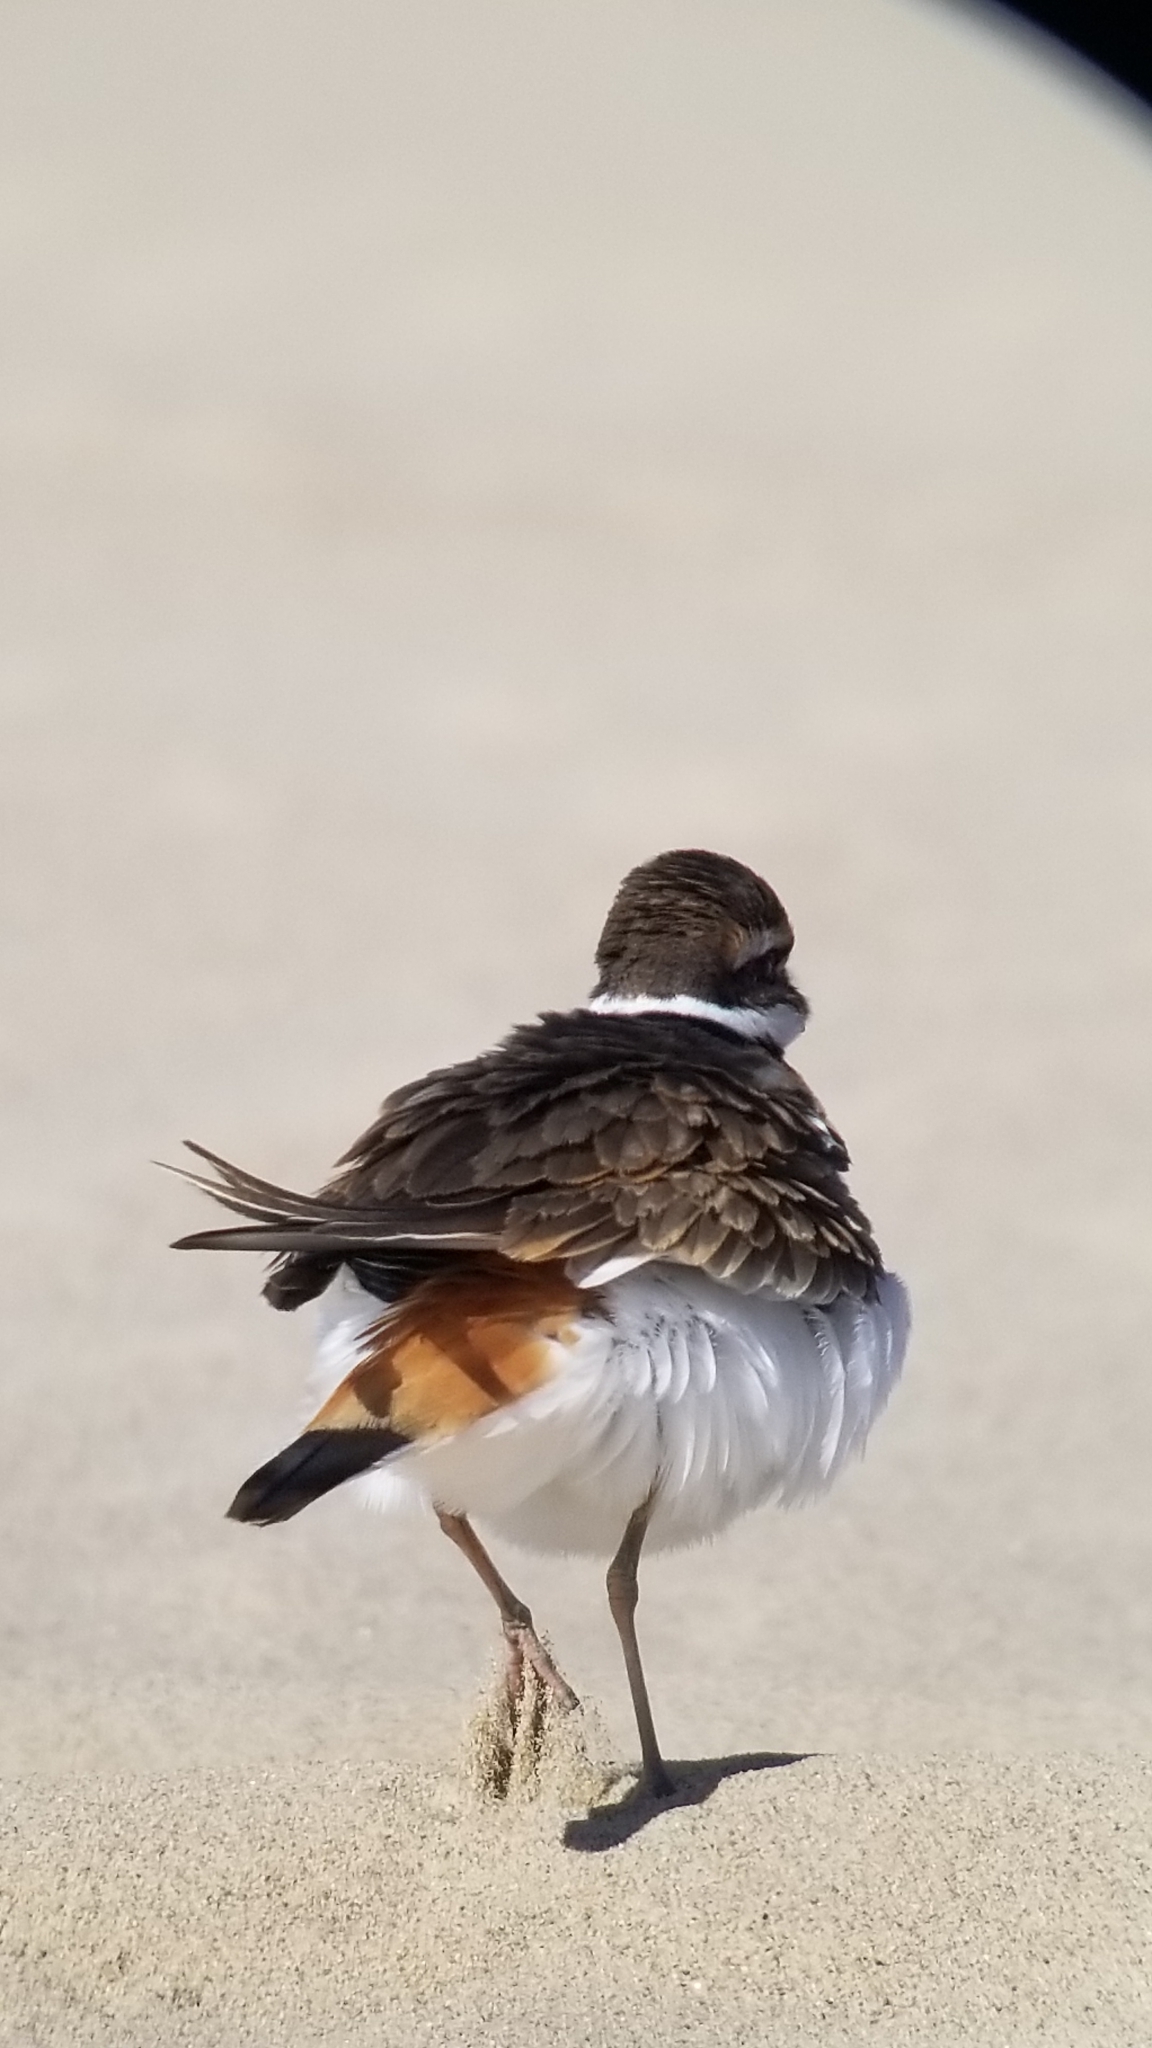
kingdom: Animalia
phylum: Chordata
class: Aves
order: Charadriiformes
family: Charadriidae
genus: Charadrius
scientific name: Charadrius vociferus
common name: Killdeer
